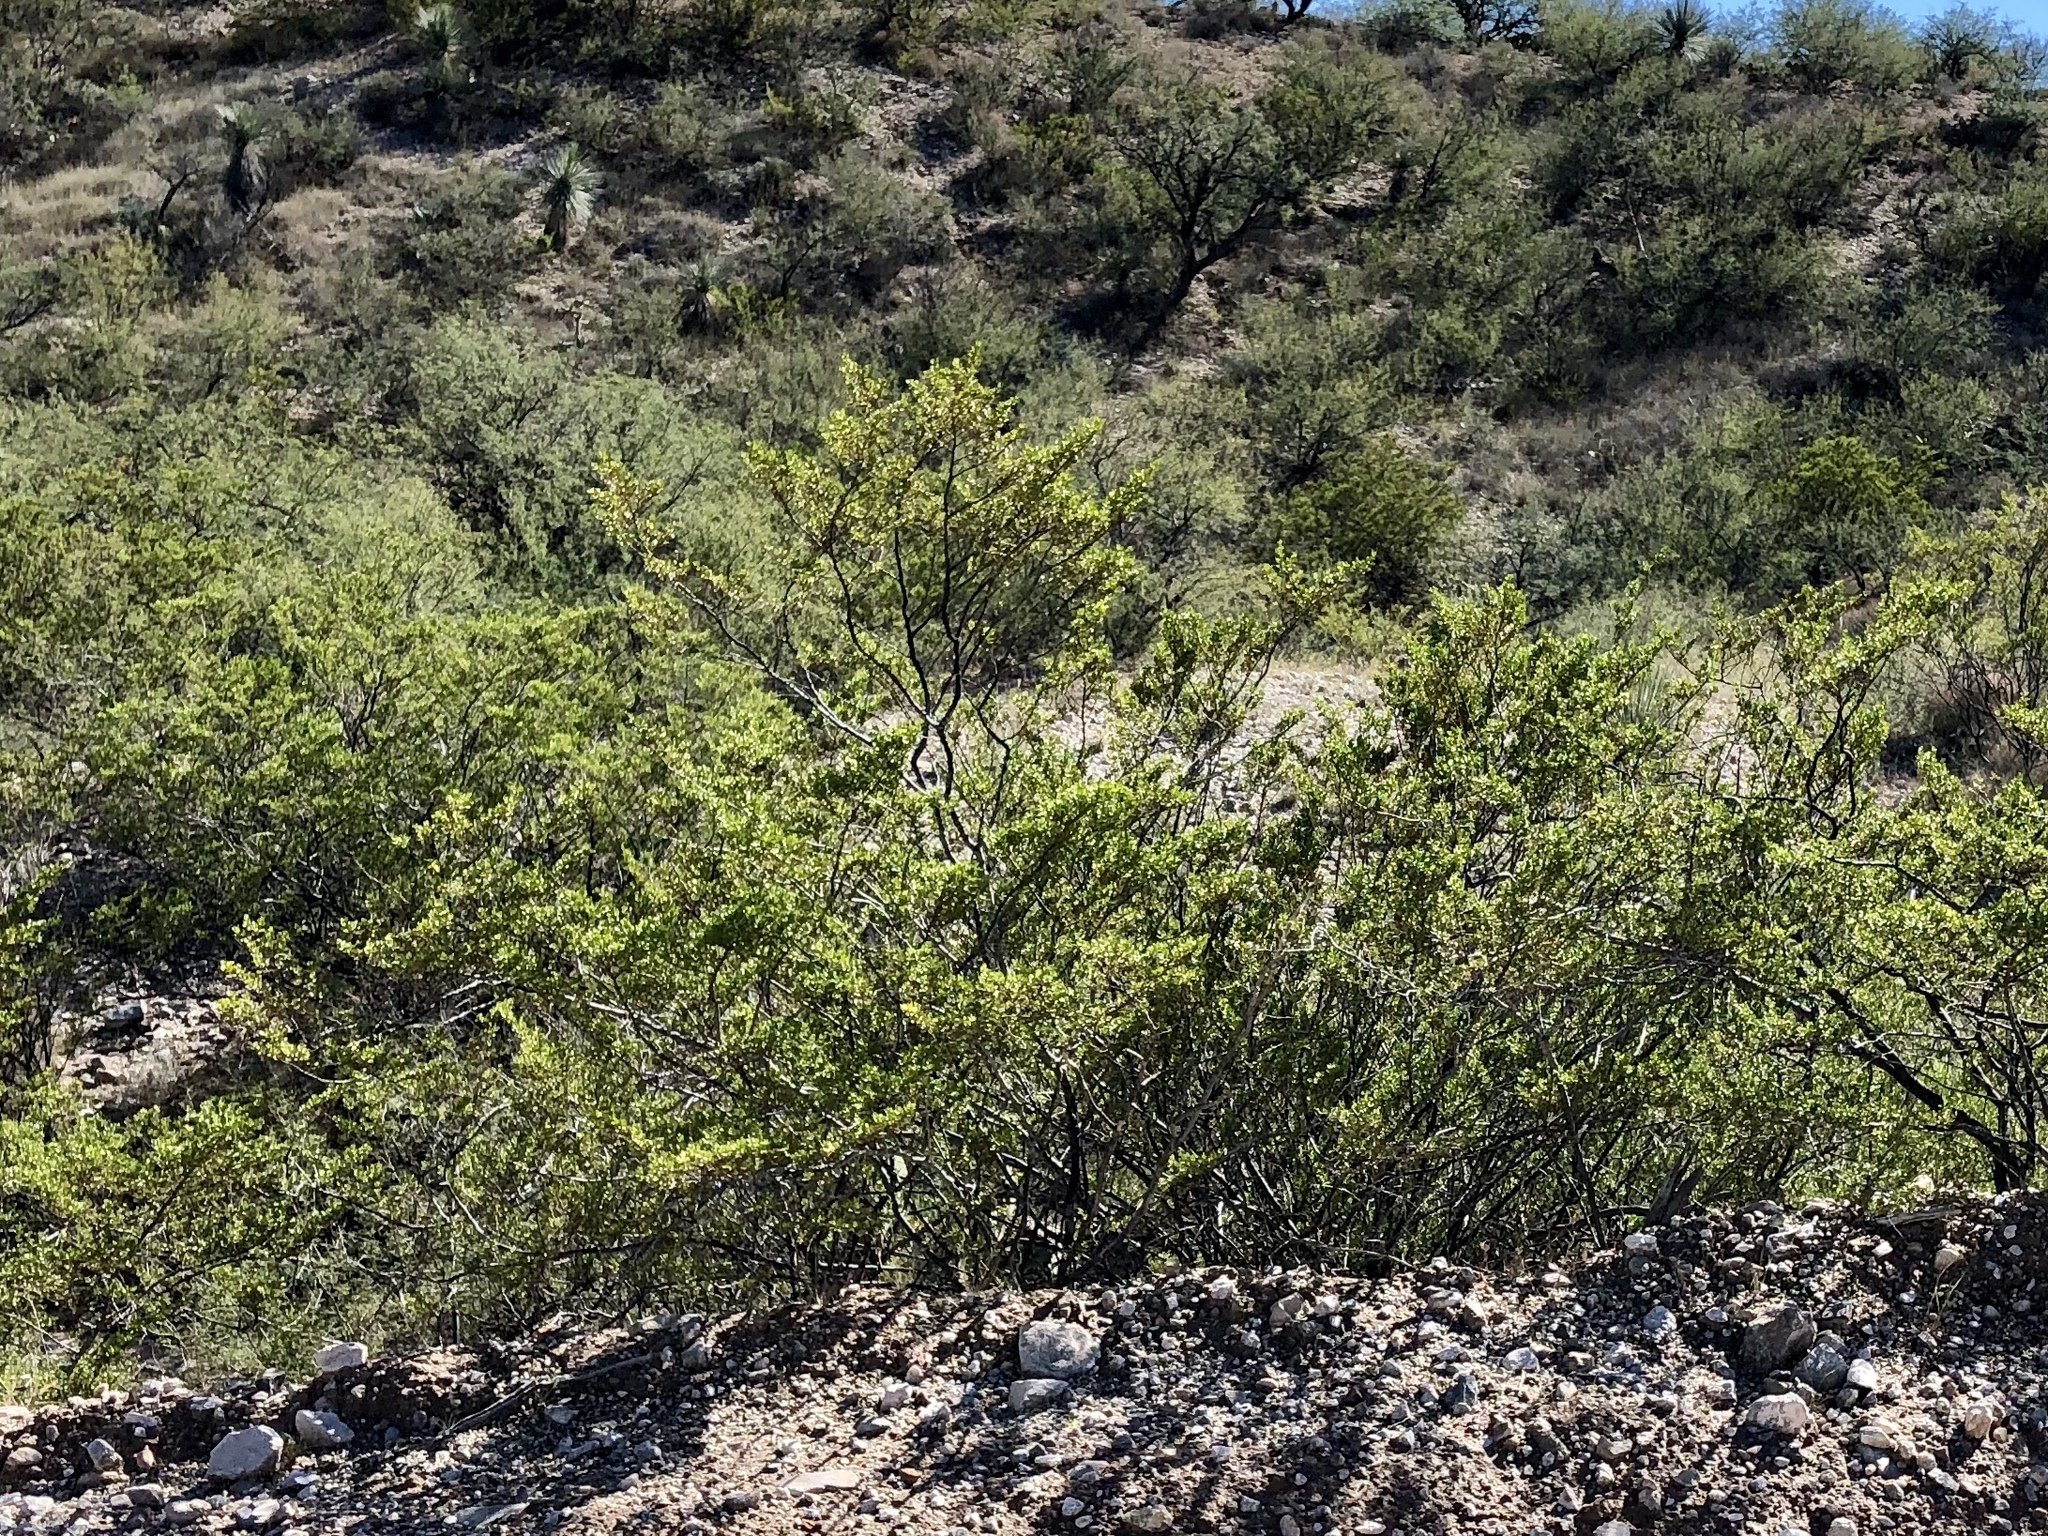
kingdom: Plantae
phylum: Tracheophyta
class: Magnoliopsida
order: Zygophyllales
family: Zygophyllaceae
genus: Larrea
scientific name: Larrea tridentata
